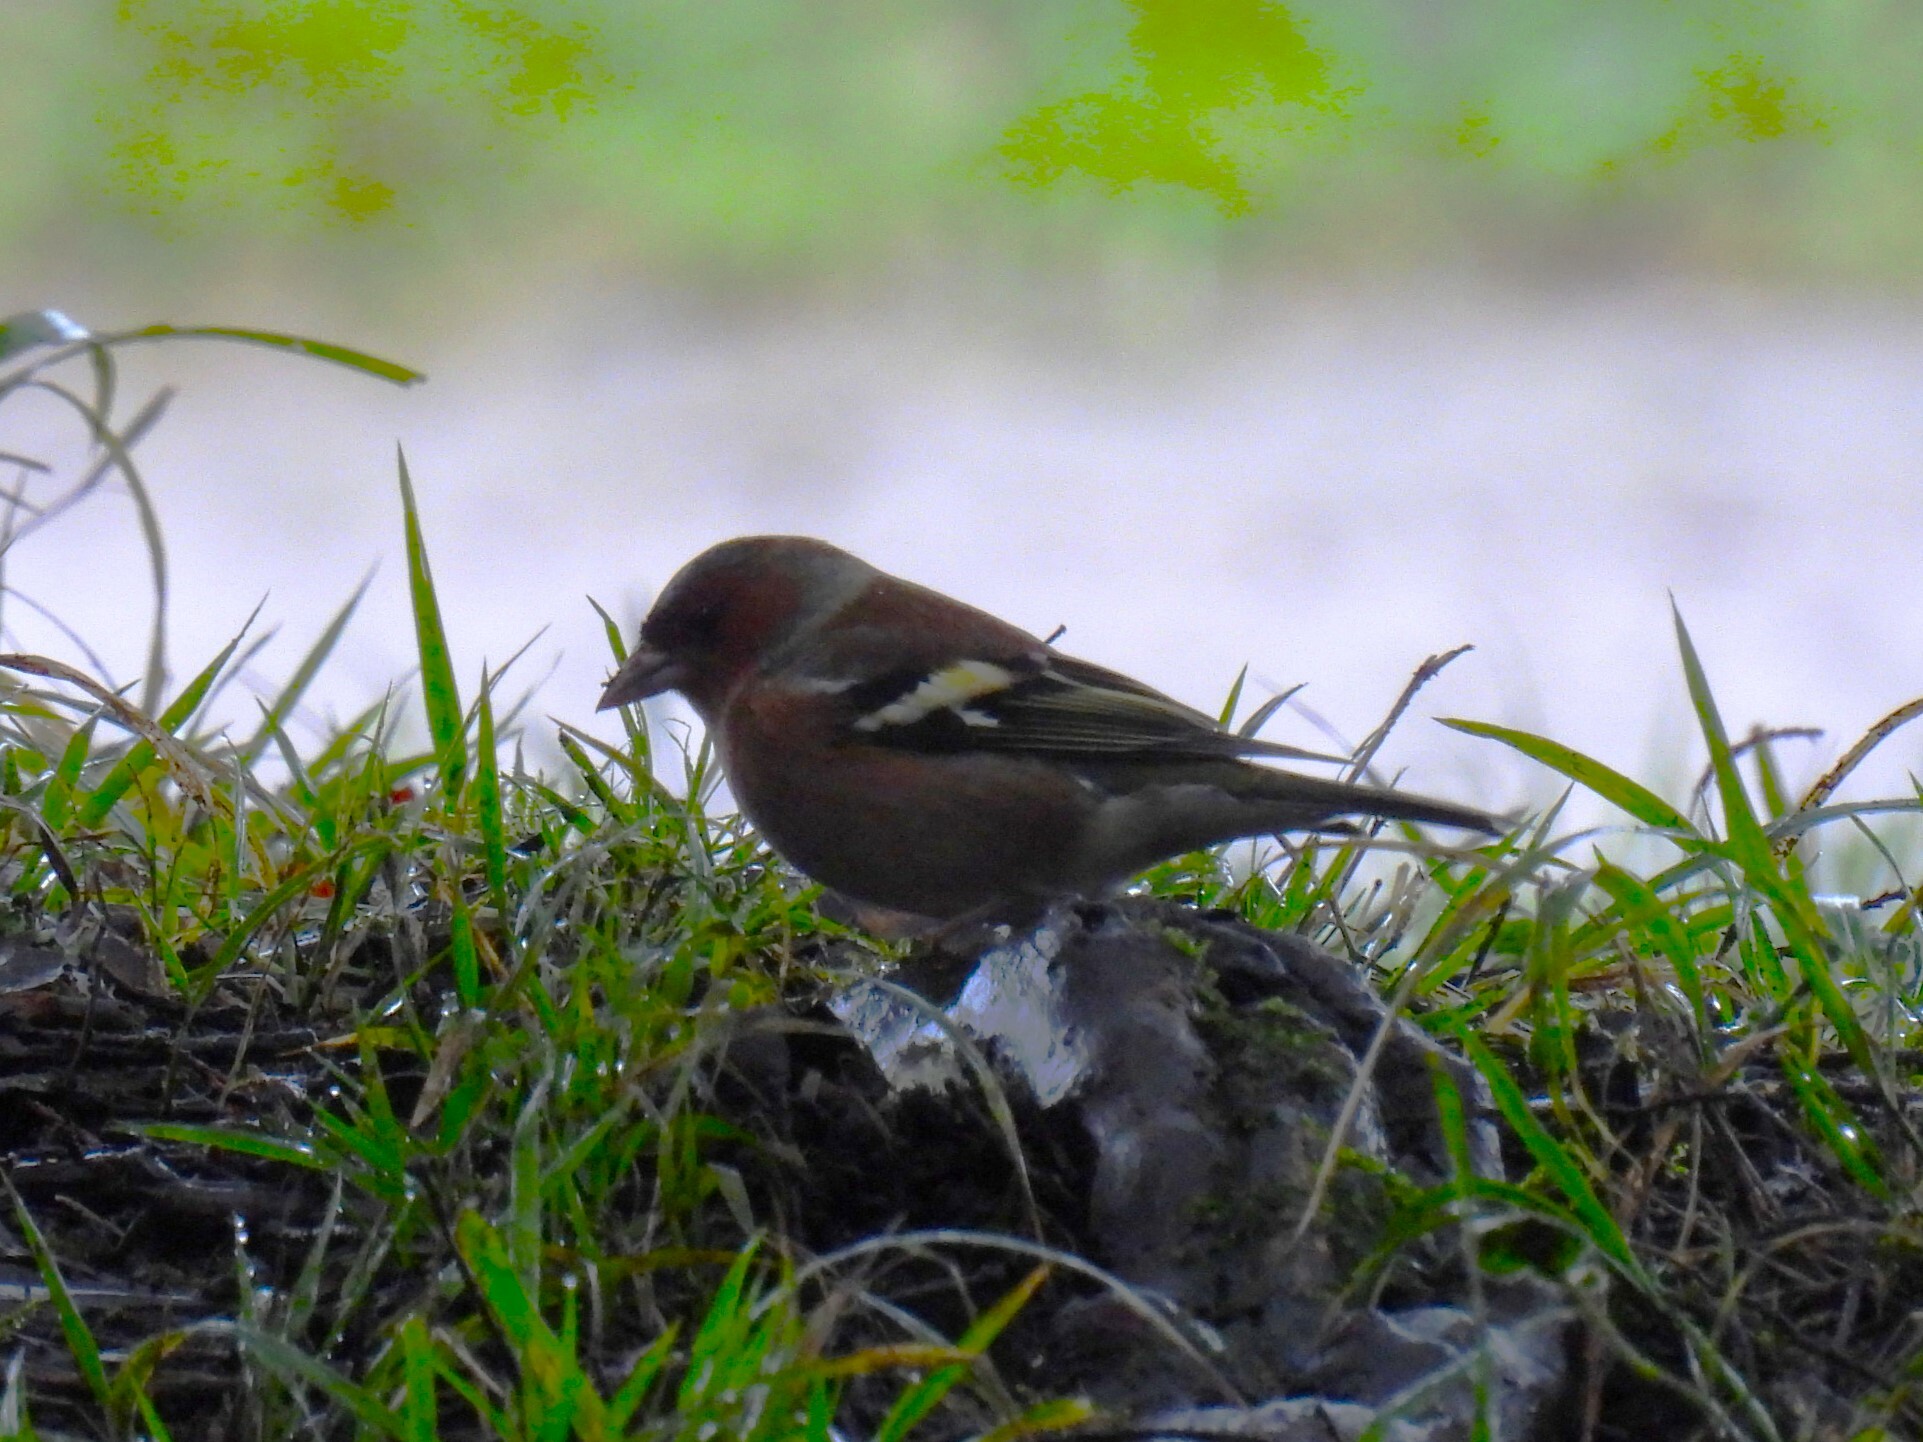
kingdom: Animalia
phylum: Chordata
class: Aves
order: Passeriformes
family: Fringillidae
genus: Fringilla
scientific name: Fringilla coelebs
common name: Common chaffinch
